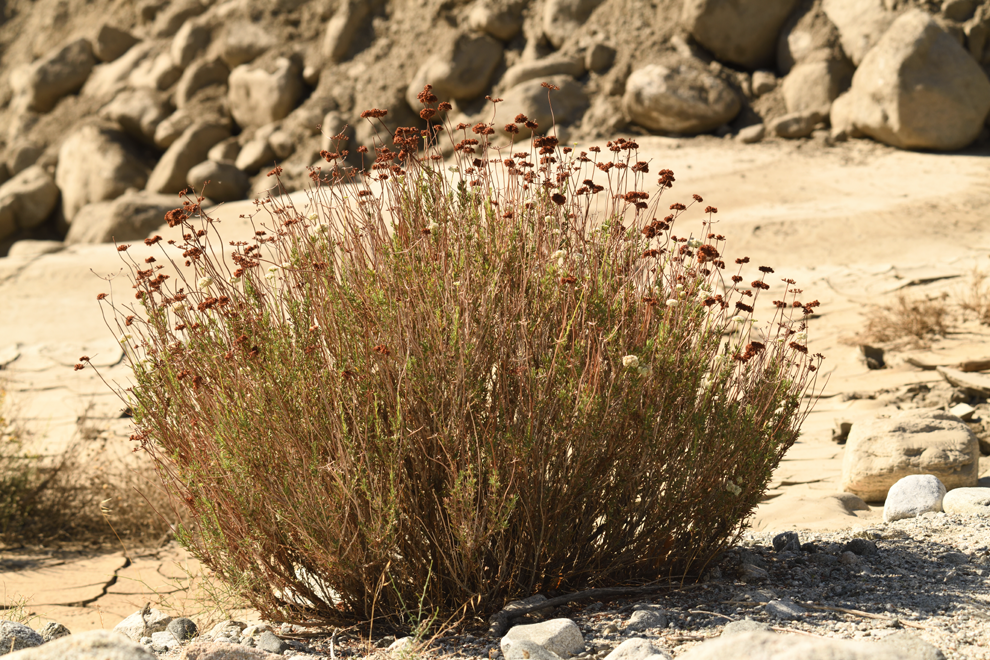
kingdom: Plantae
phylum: Tracheophyta
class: Magnoliopsida
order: Caryophyllales
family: Polygonaceae
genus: Eriogonum
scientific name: Eriogonum fasciculatum
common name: California wild buckwheat
